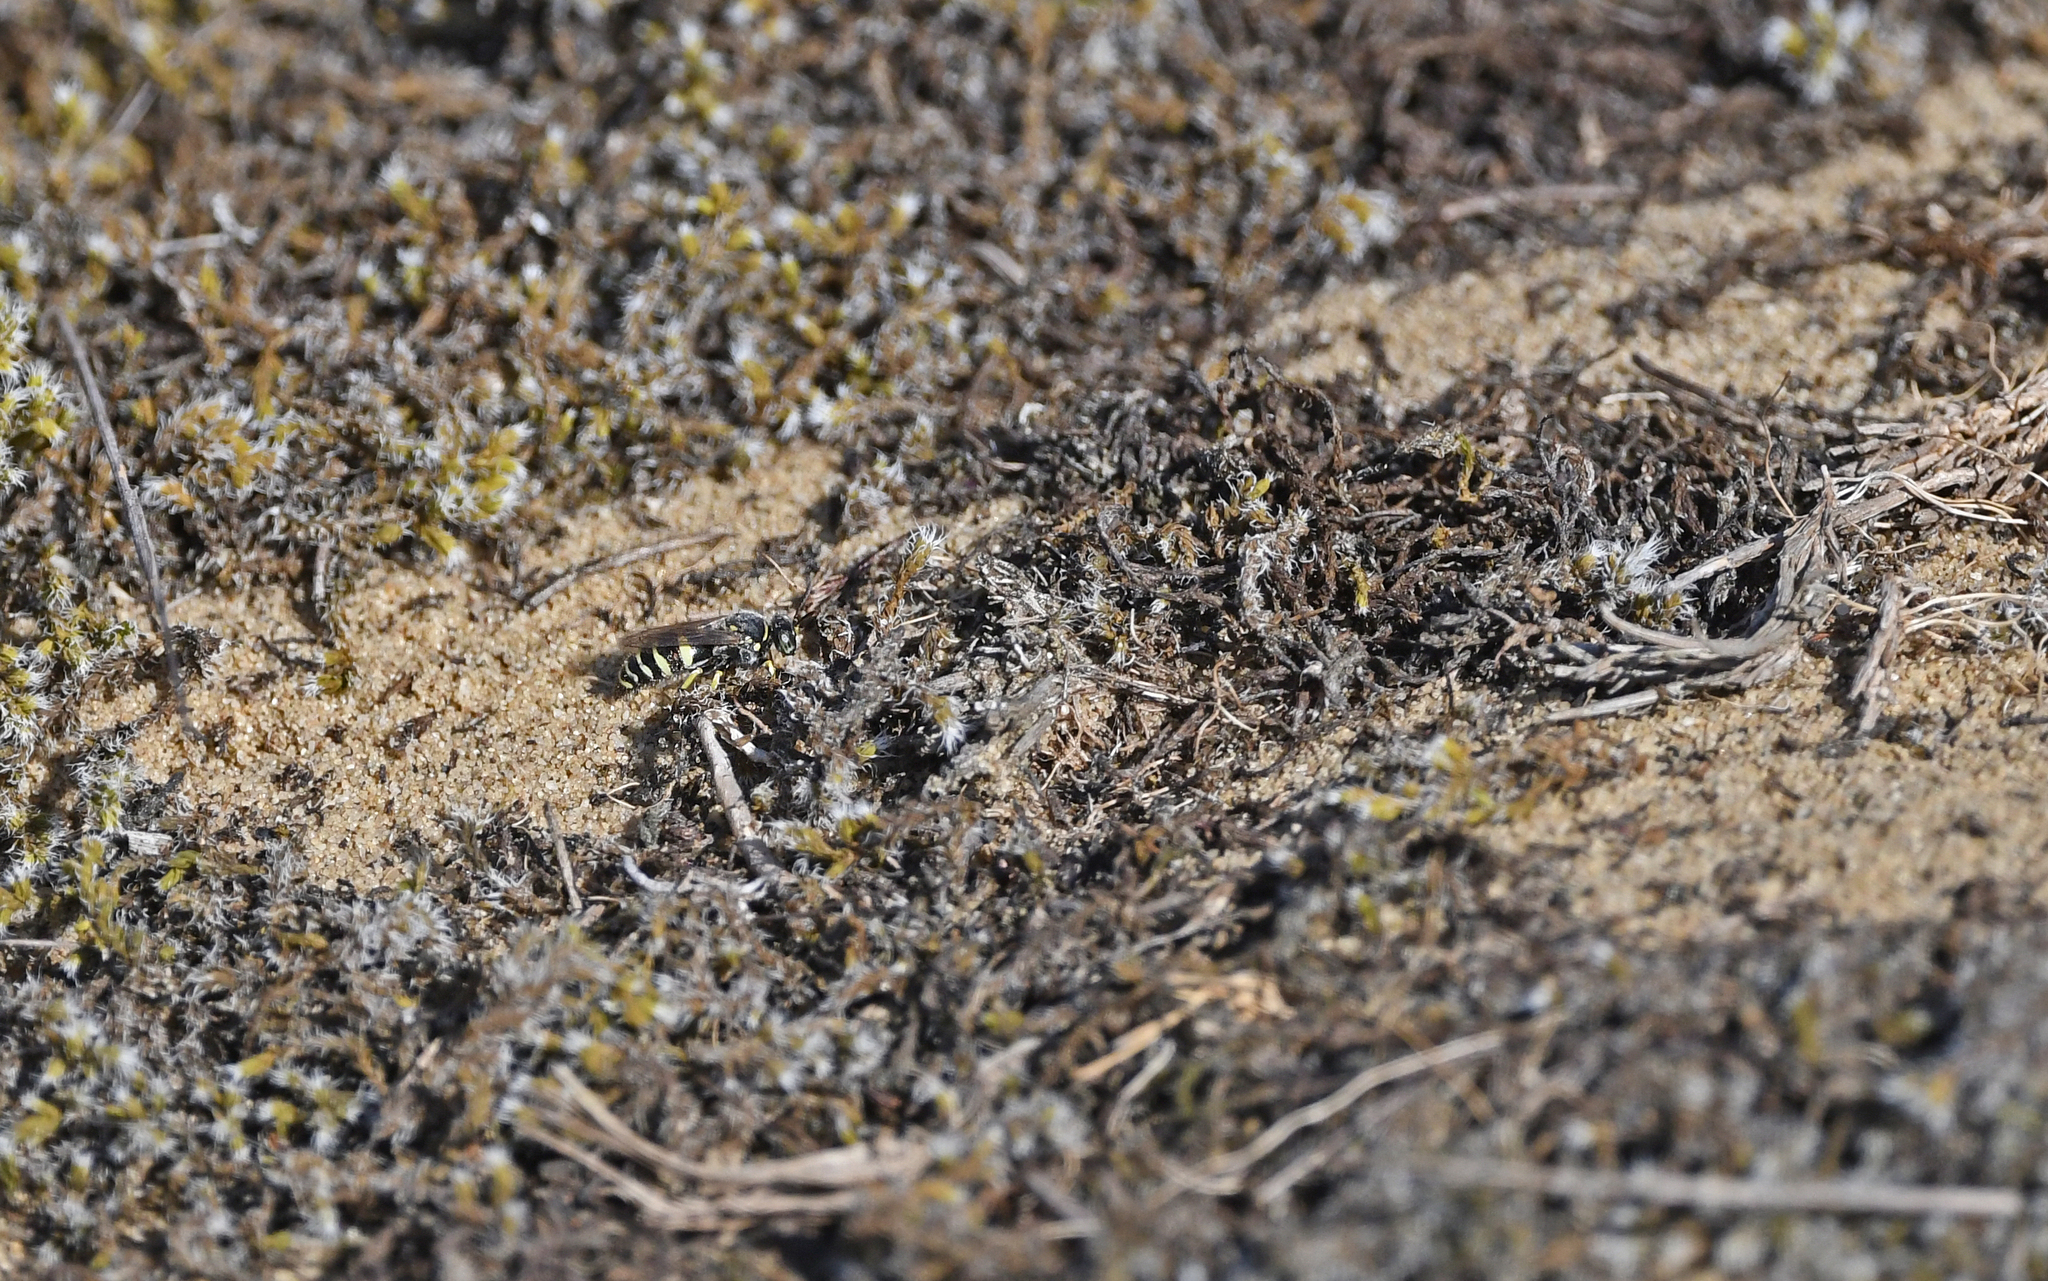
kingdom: Animalia
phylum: Arthropoda
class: Insecta
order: Hymenoptera
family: Crabronidae
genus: Bembecinus
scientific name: Bembecinus tridens
